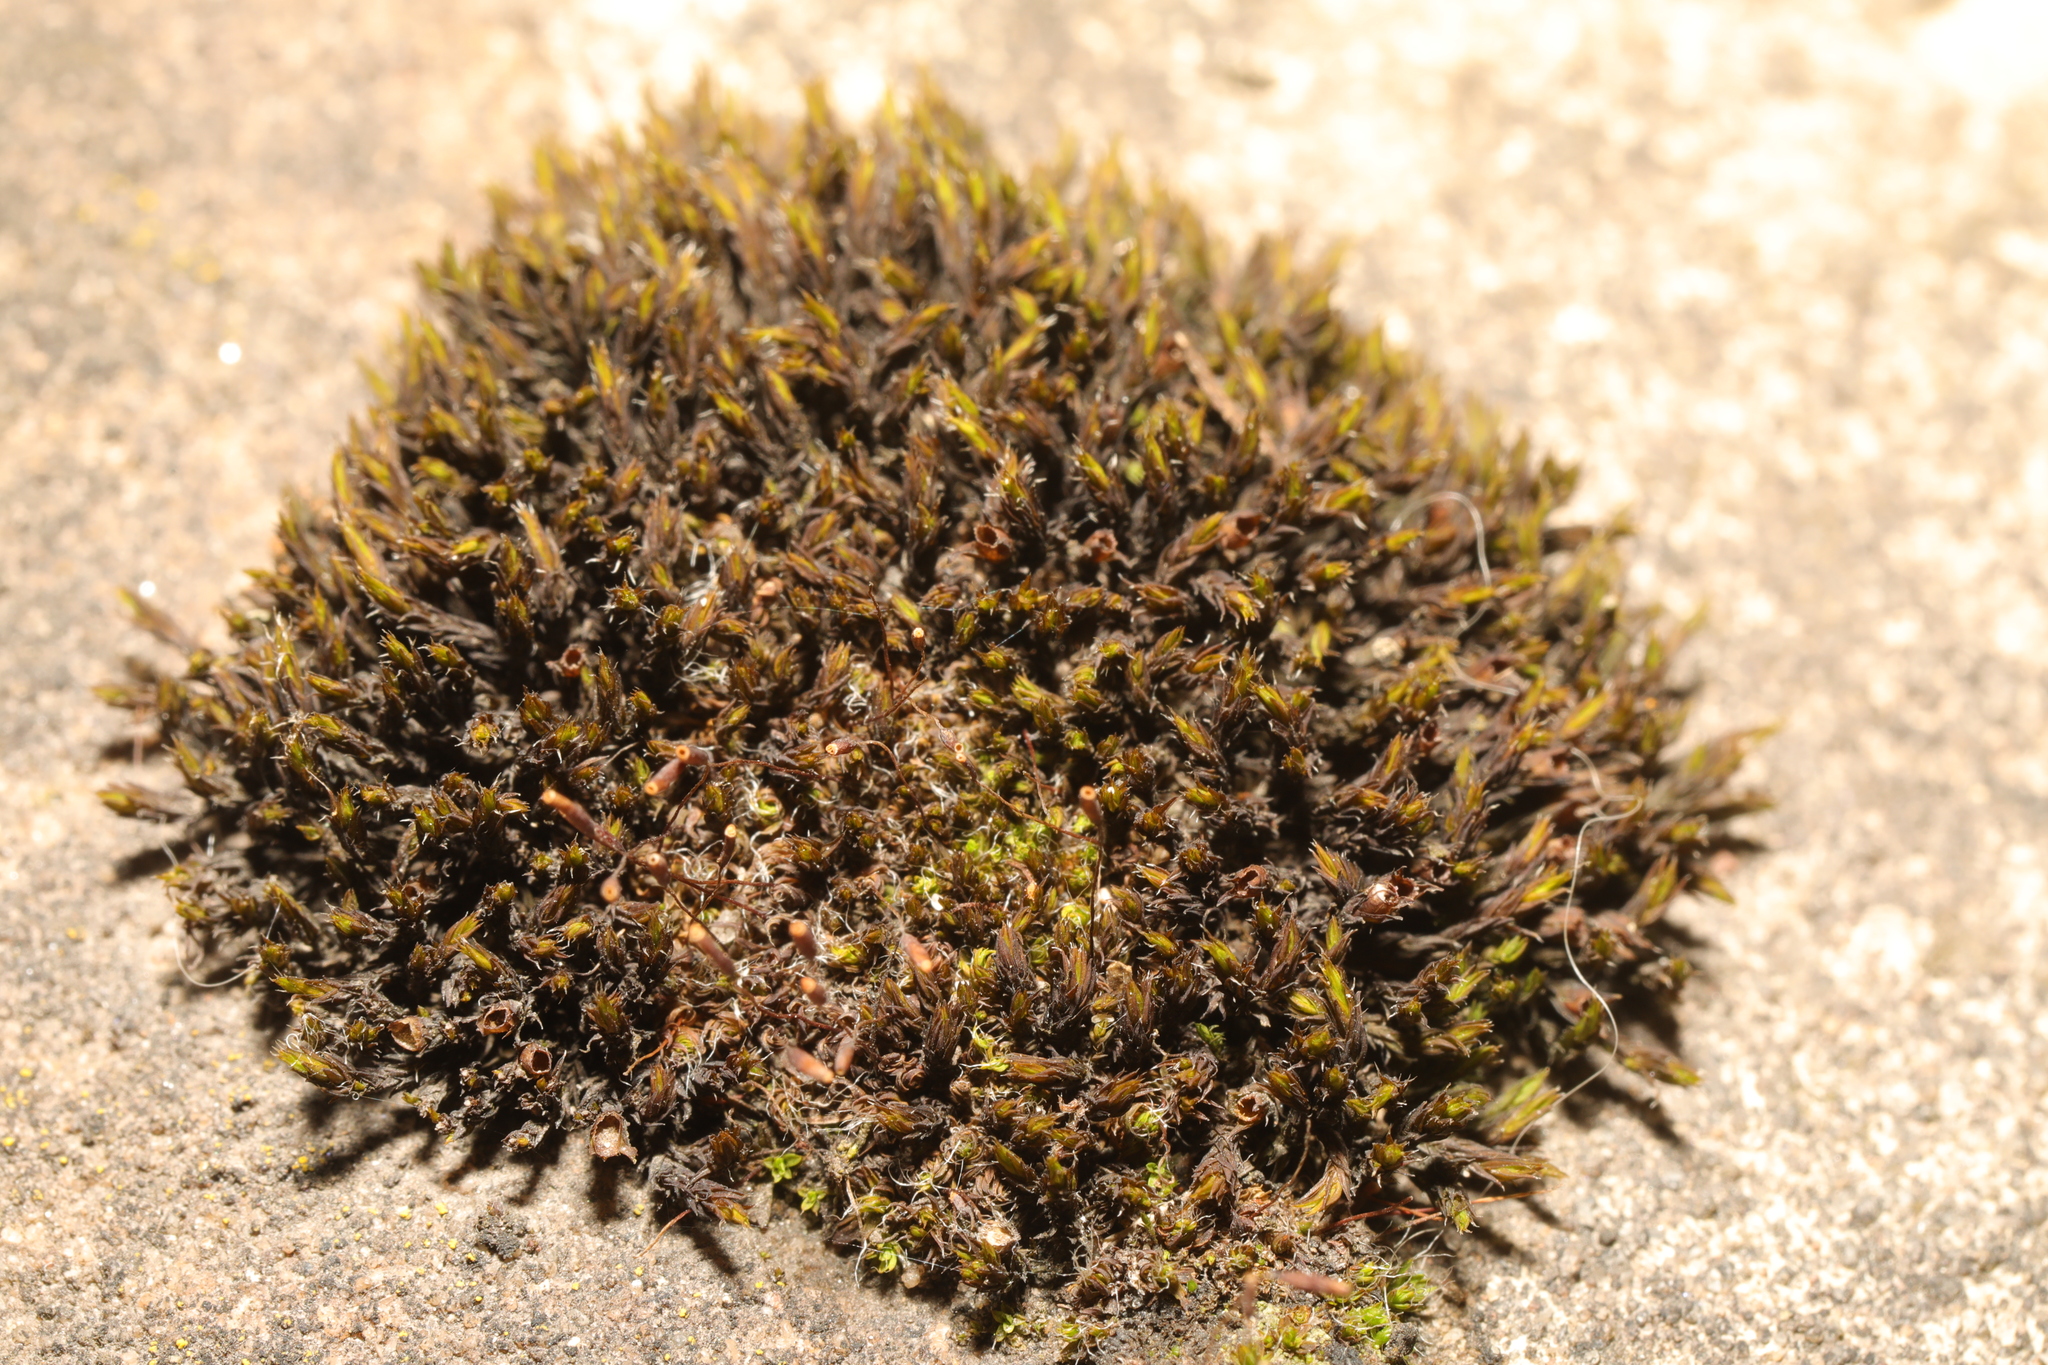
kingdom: Plantae
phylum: Bryophyta
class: Bryopsida
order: Grimmiales
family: Grimmiaceae
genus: Schistidium
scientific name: Schistidium
